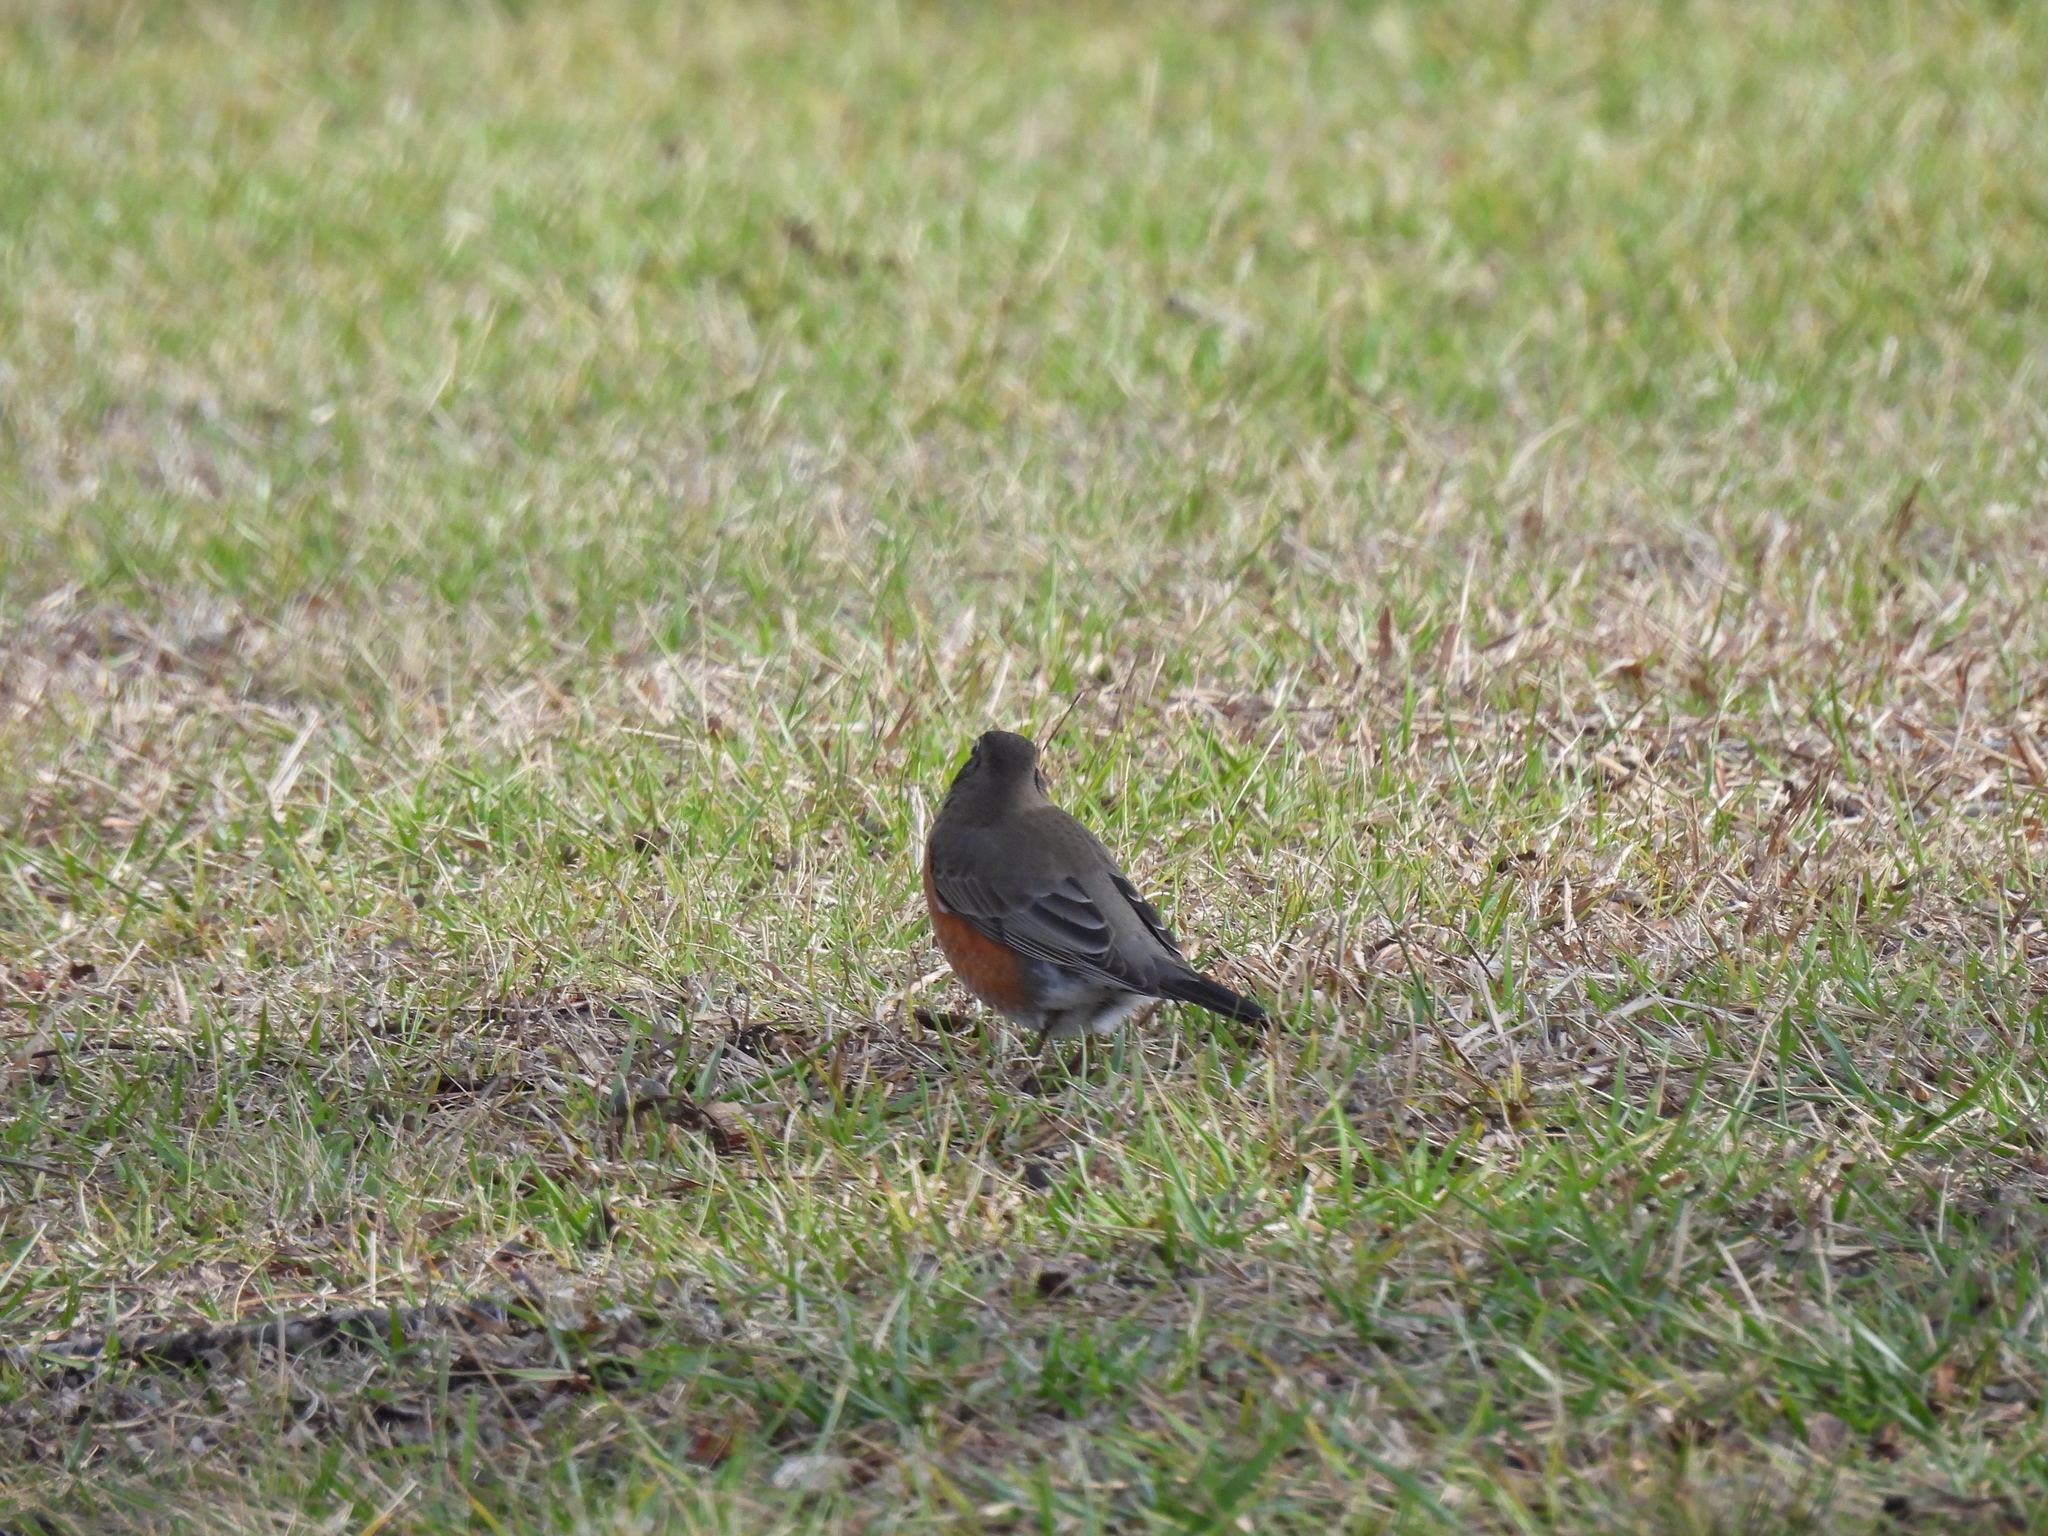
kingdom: Animalia
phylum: Chordata
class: Aves
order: Passeriformes
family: Turdidae
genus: Turdus
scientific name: Turdus migratorius
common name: American robin
